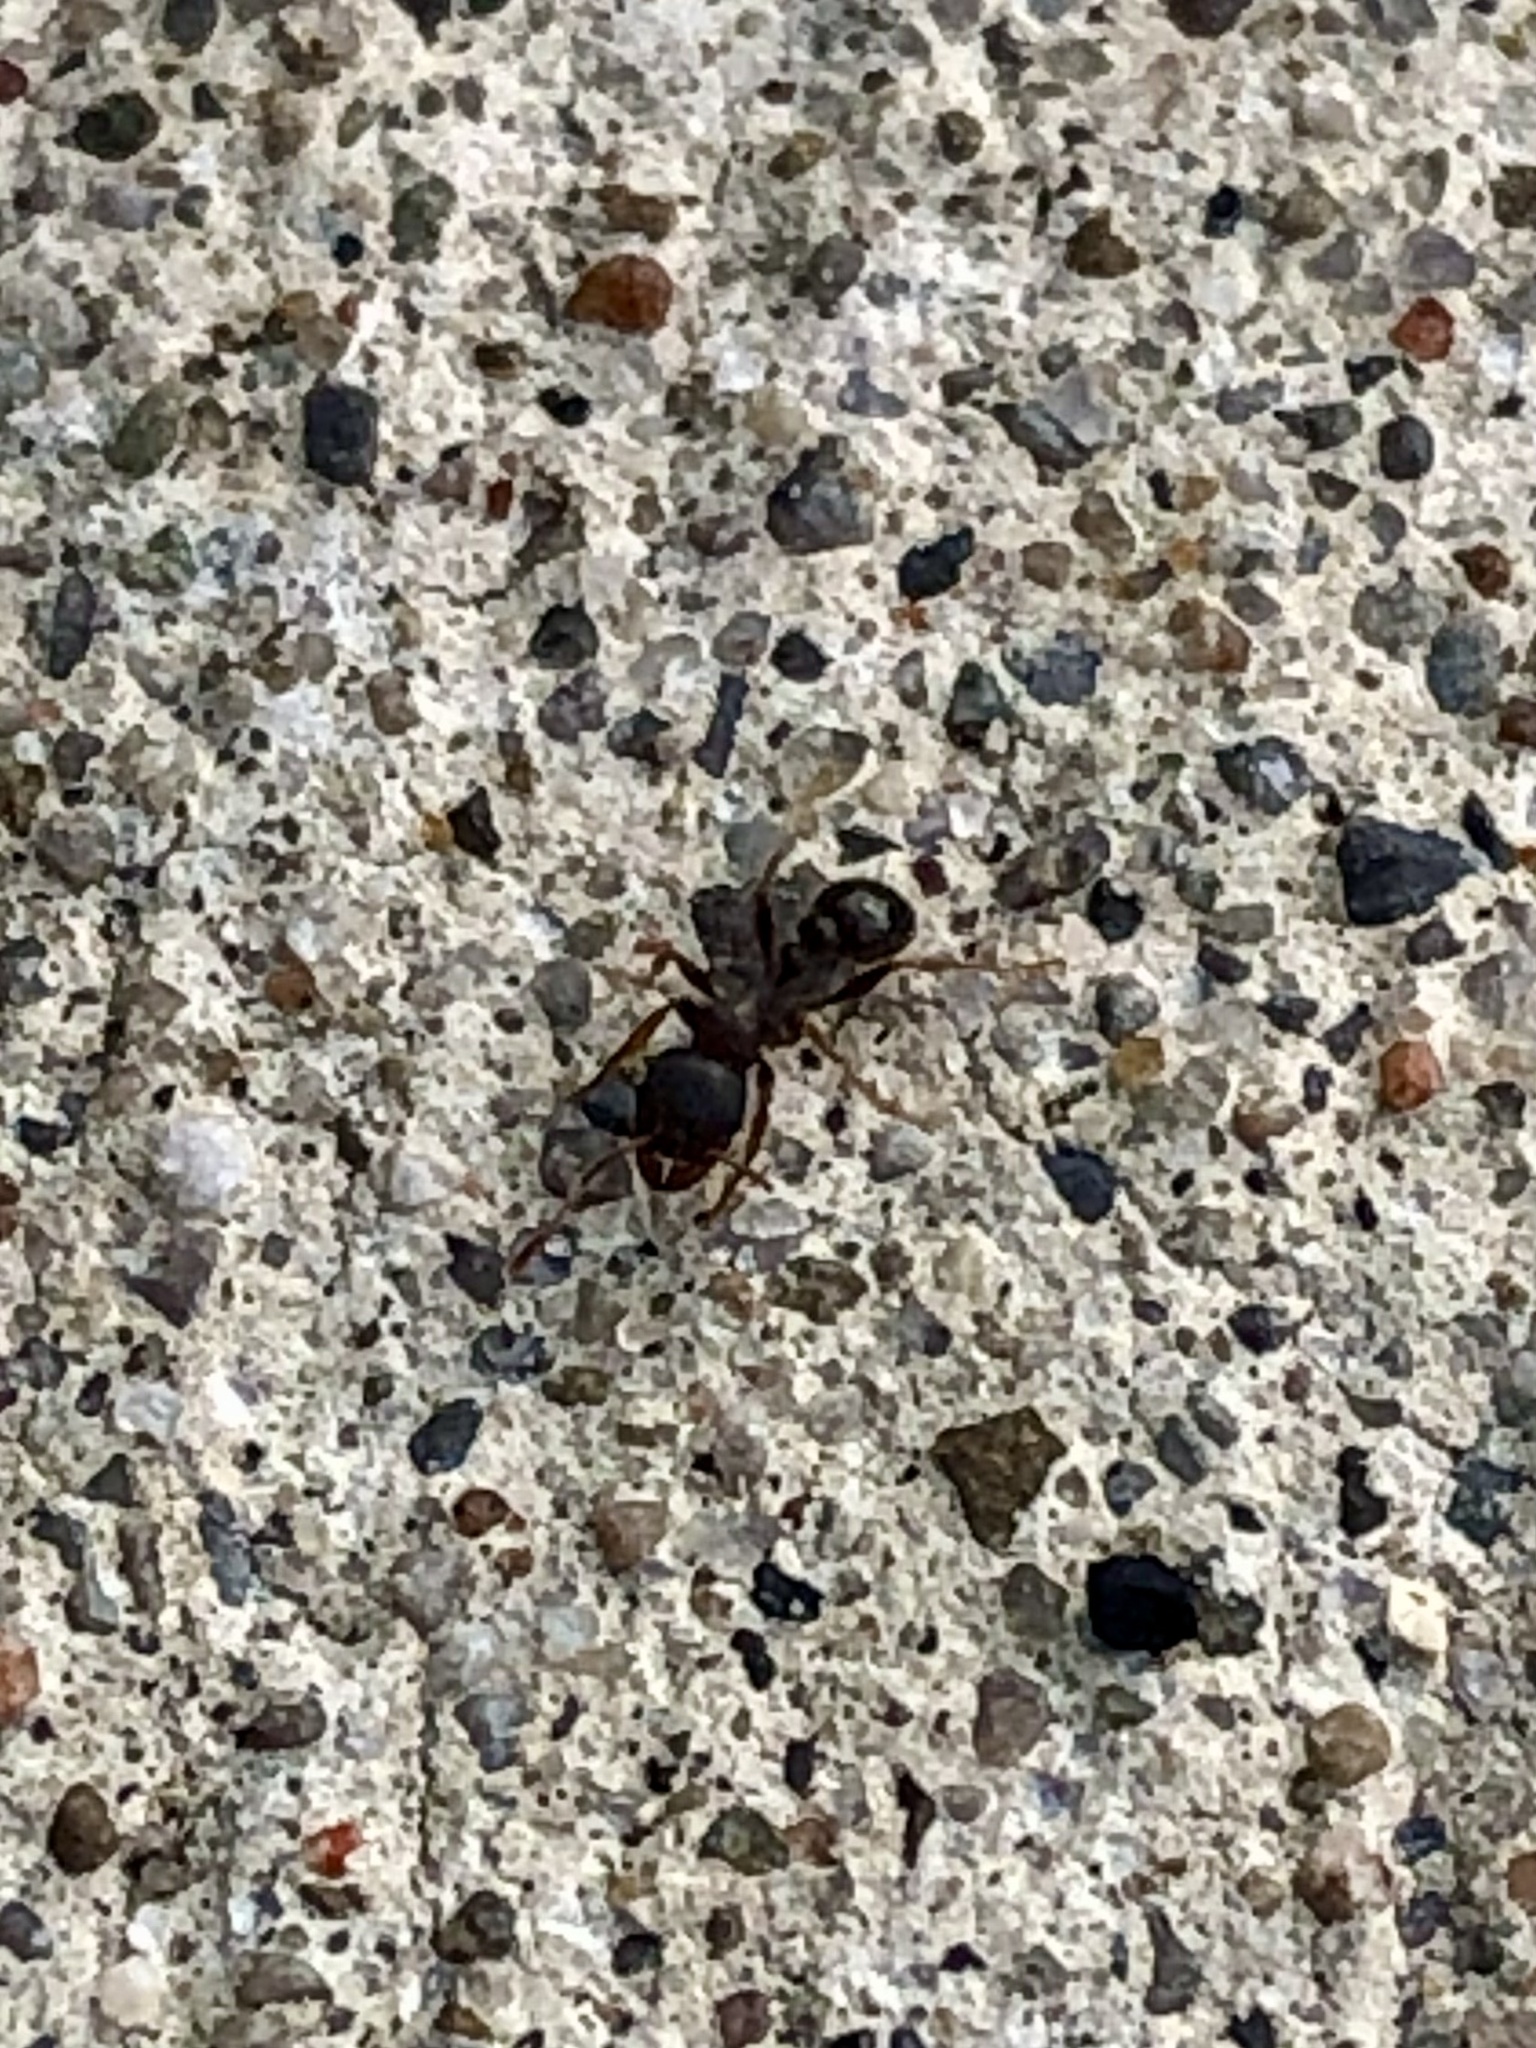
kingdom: Animalia
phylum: Arthropoda
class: Insecta
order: Hymenoptera
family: Formicidae
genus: Tetramorium
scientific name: Tetramorium immigrans
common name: Pavement ant
